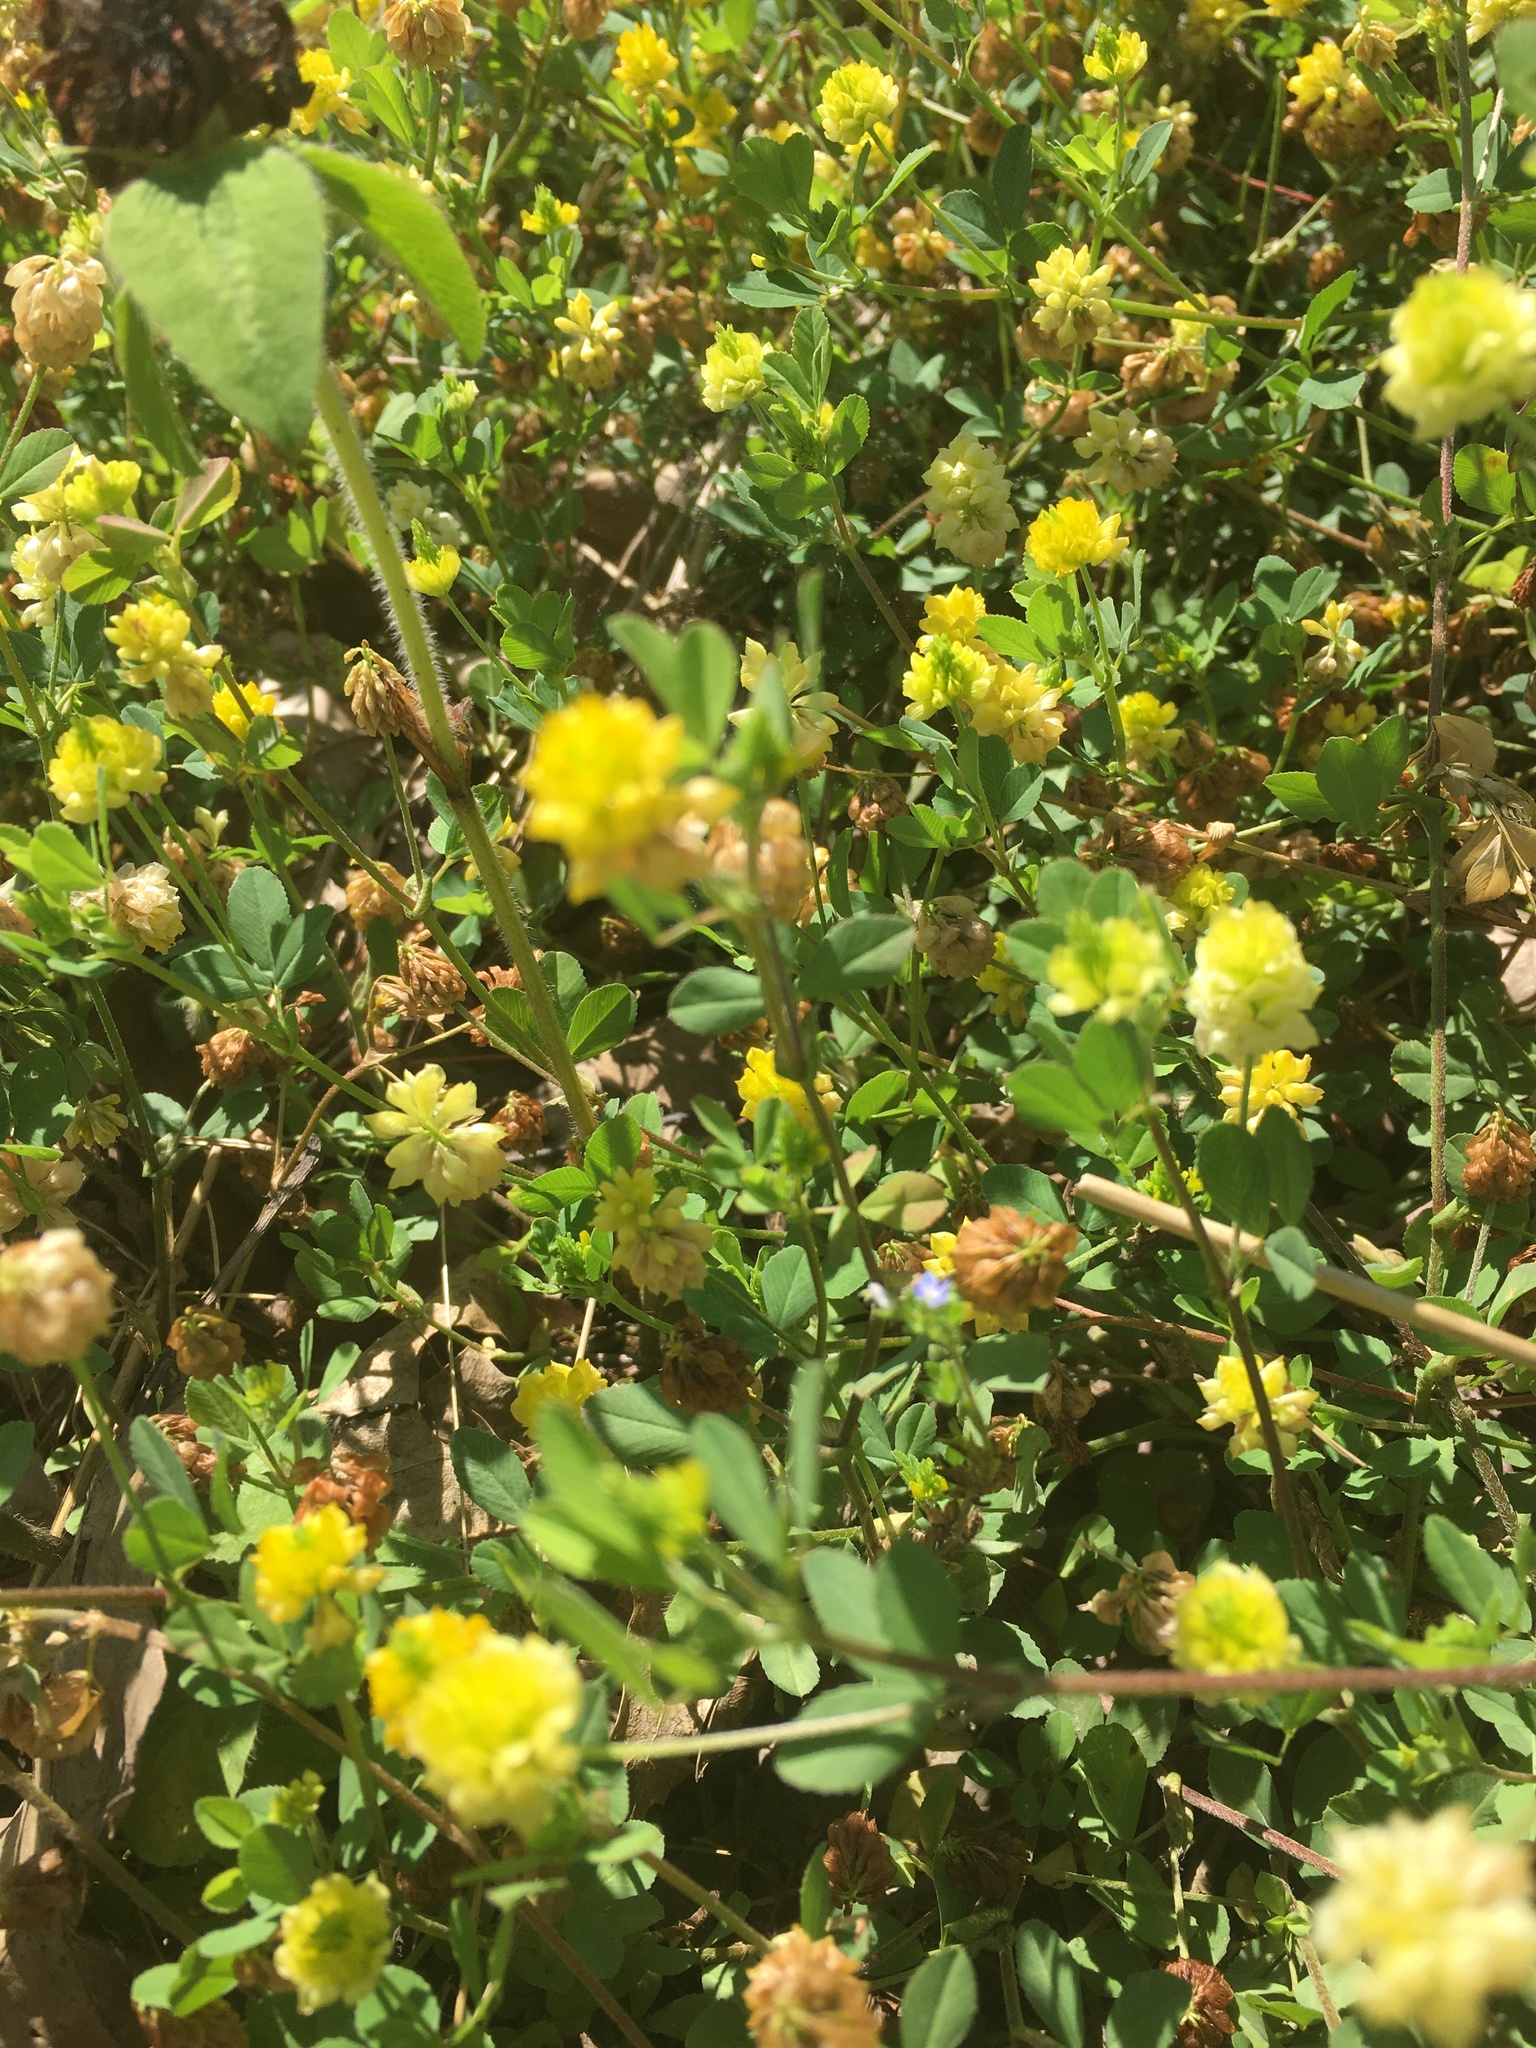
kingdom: Plantae
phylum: Tracheophyta
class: Magnoliopsida
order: Fabales
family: Fabaceae
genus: Trifolium
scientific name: Trifolium campestre
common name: Field clover
